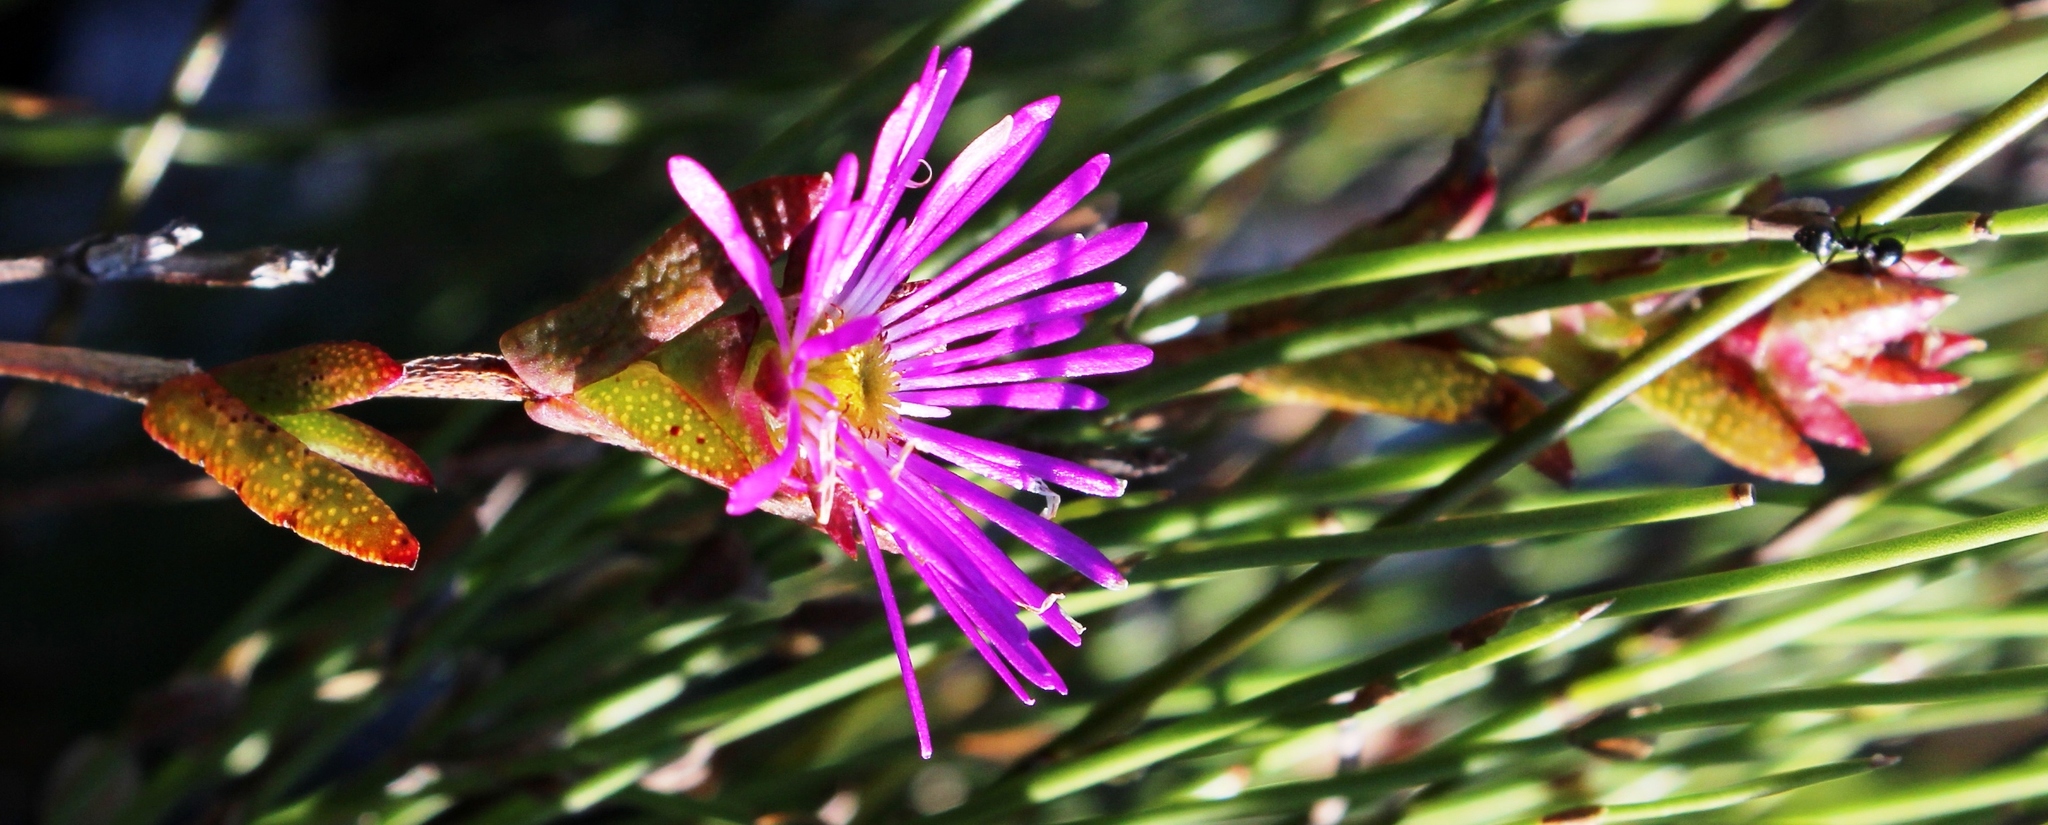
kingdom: Plantae
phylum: Tracheophyta
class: Magnoliopsida
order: Caryophyllales
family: Aizoaceae
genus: Erepsia
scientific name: Erepsia bracteata
